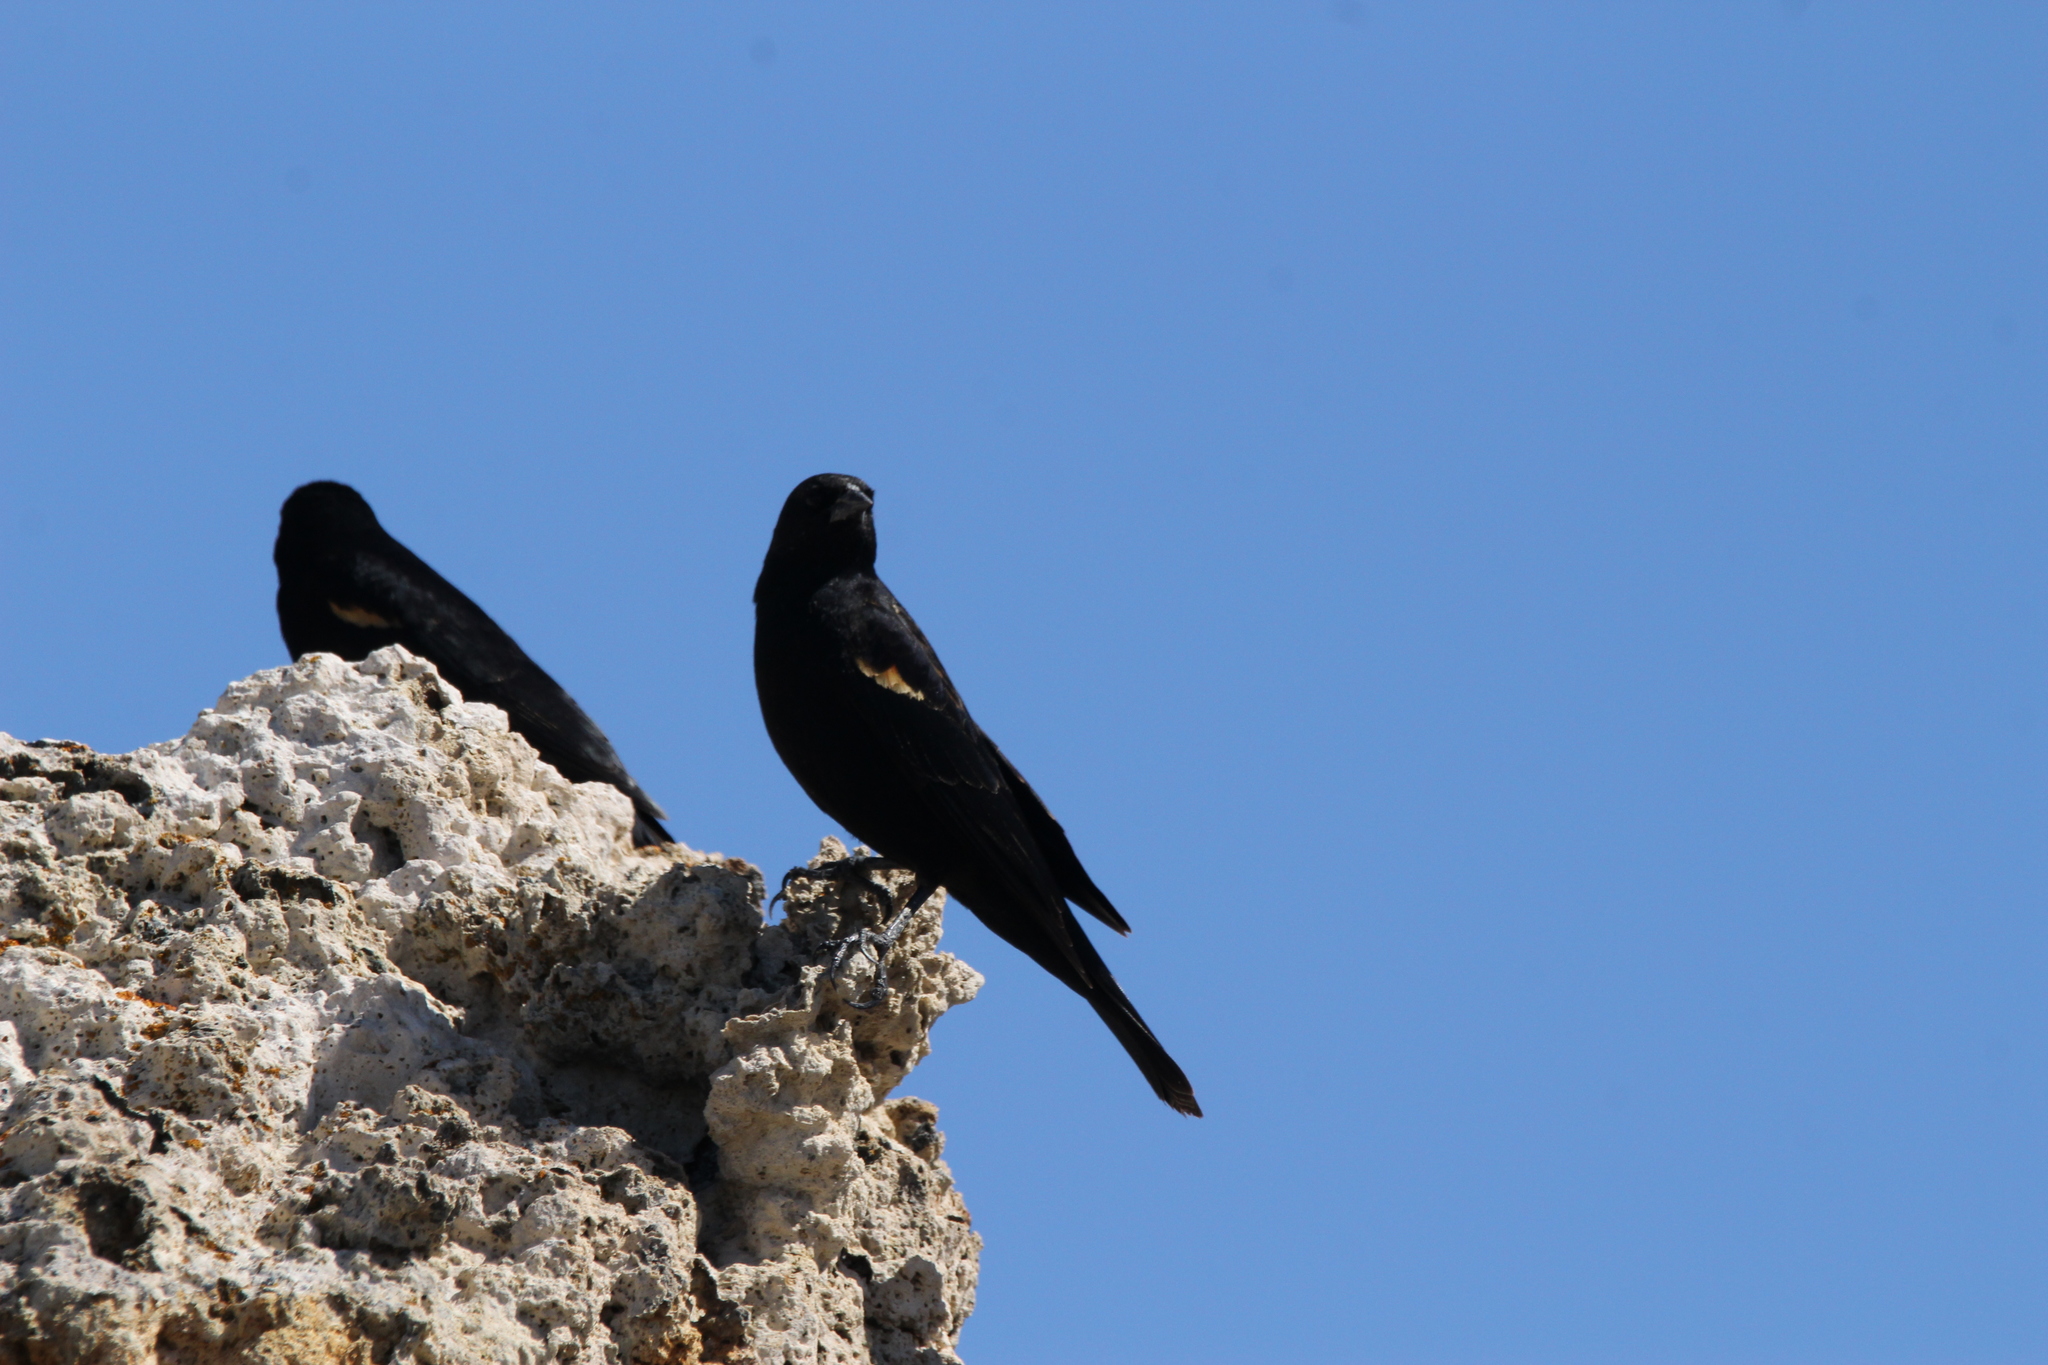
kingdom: Animalia
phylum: Chordata
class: Aves
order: Passeriformes
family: Icteridae
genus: Agelaius
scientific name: Agelaius phoeniceus
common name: Red-winged blackbird
